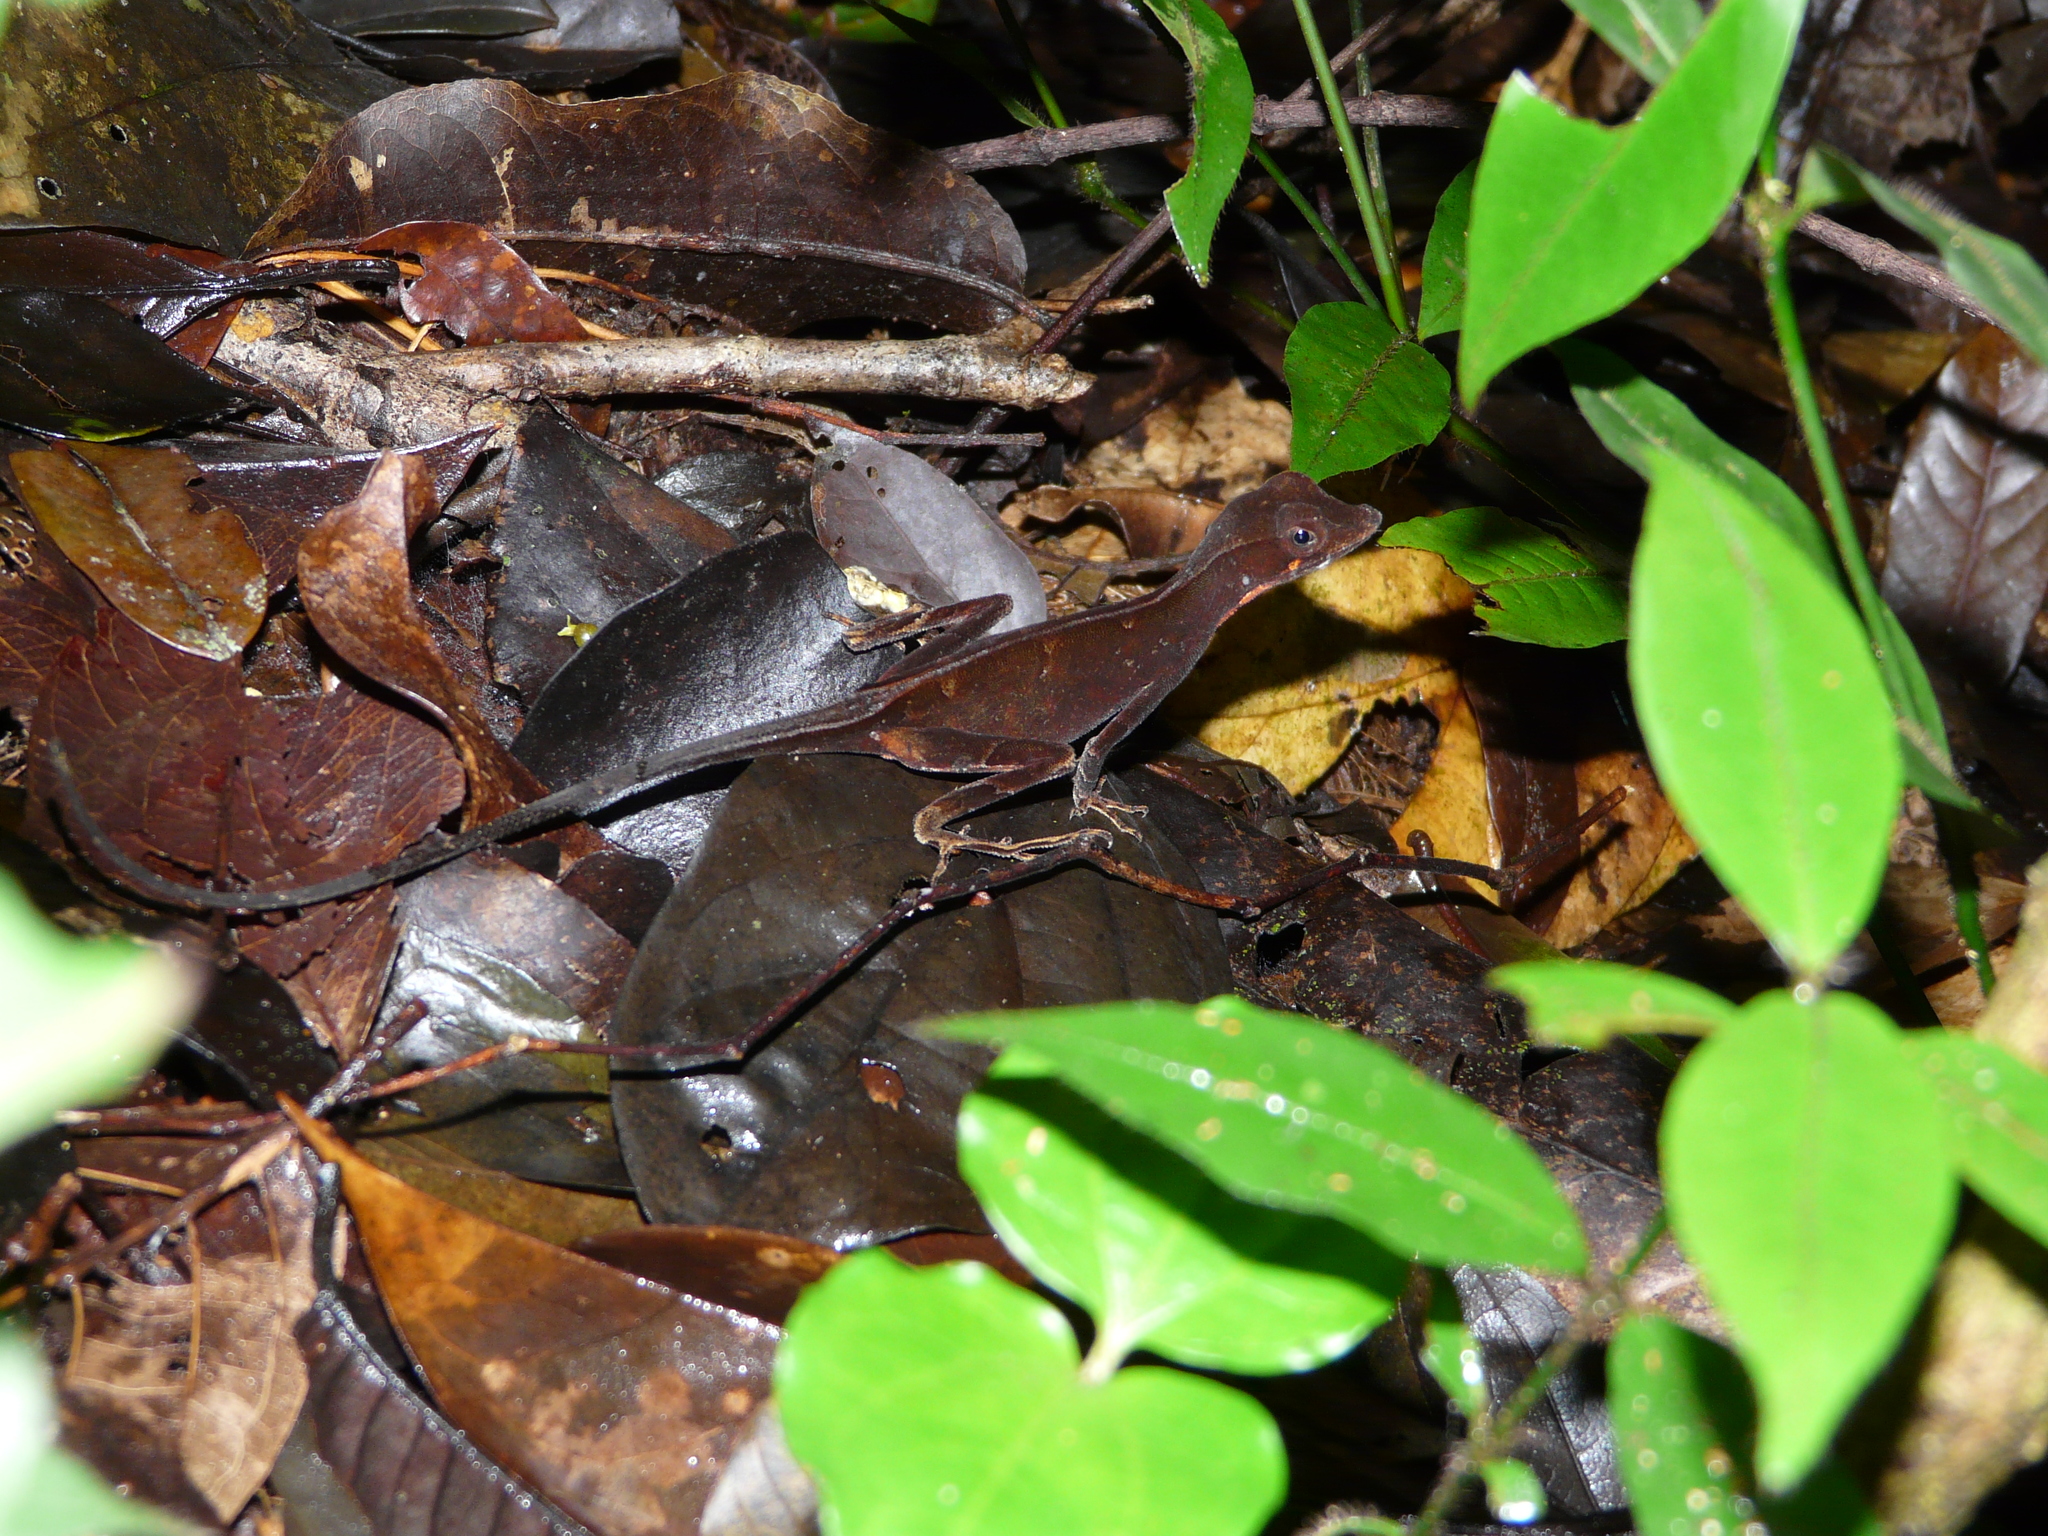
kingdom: Animalia
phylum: Chordata
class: Squamata
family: Dactyloidae
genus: Anolis
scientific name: Anolis chrysolepis
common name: Goldenscale anole
